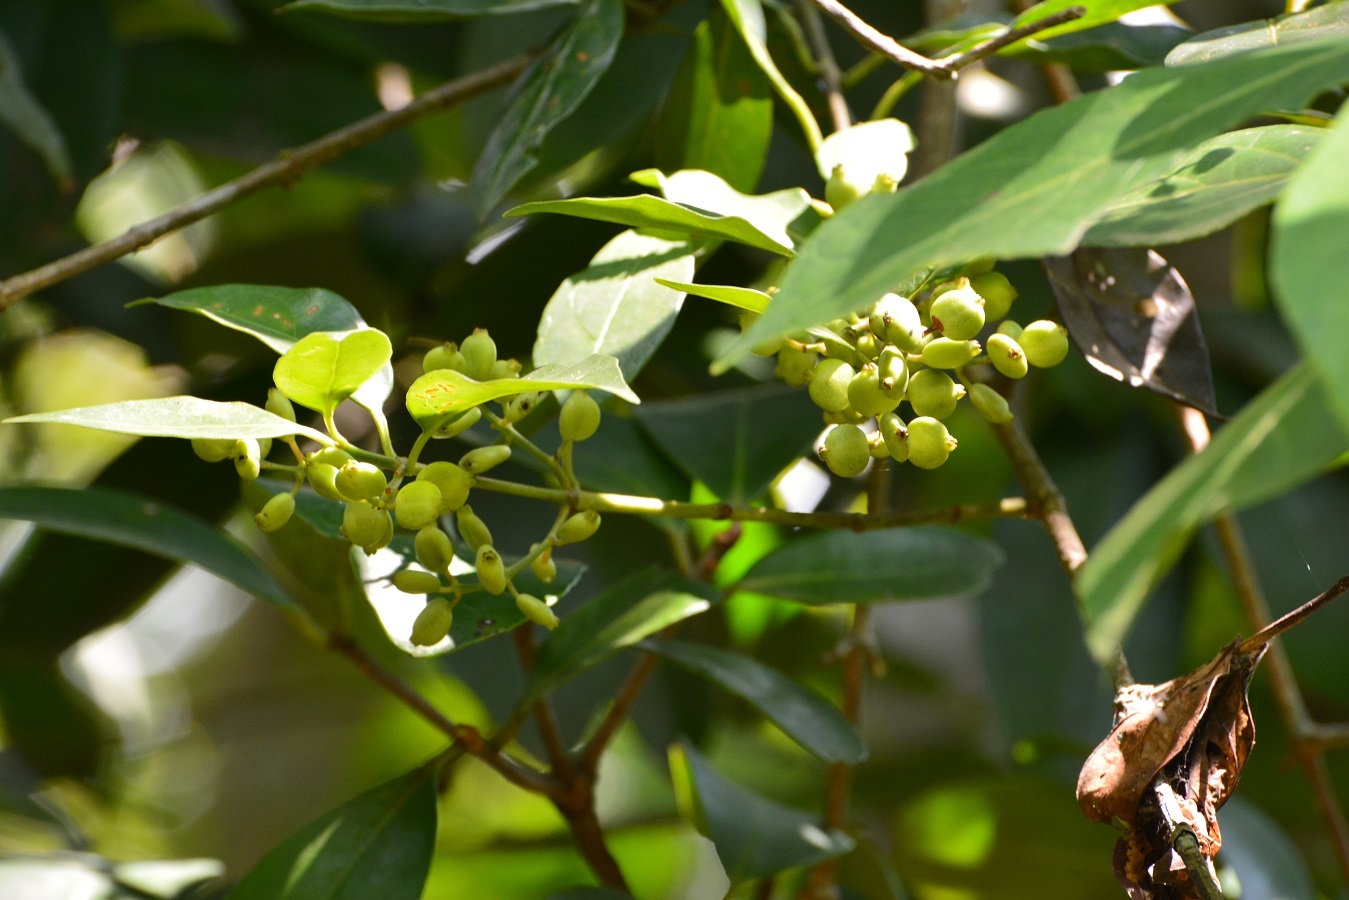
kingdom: Plantae
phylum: Tracheophyta
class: Magnoliopsida
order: Gentianales
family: Rubiaceae
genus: Chiococca
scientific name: Chiococca phaenostemon
